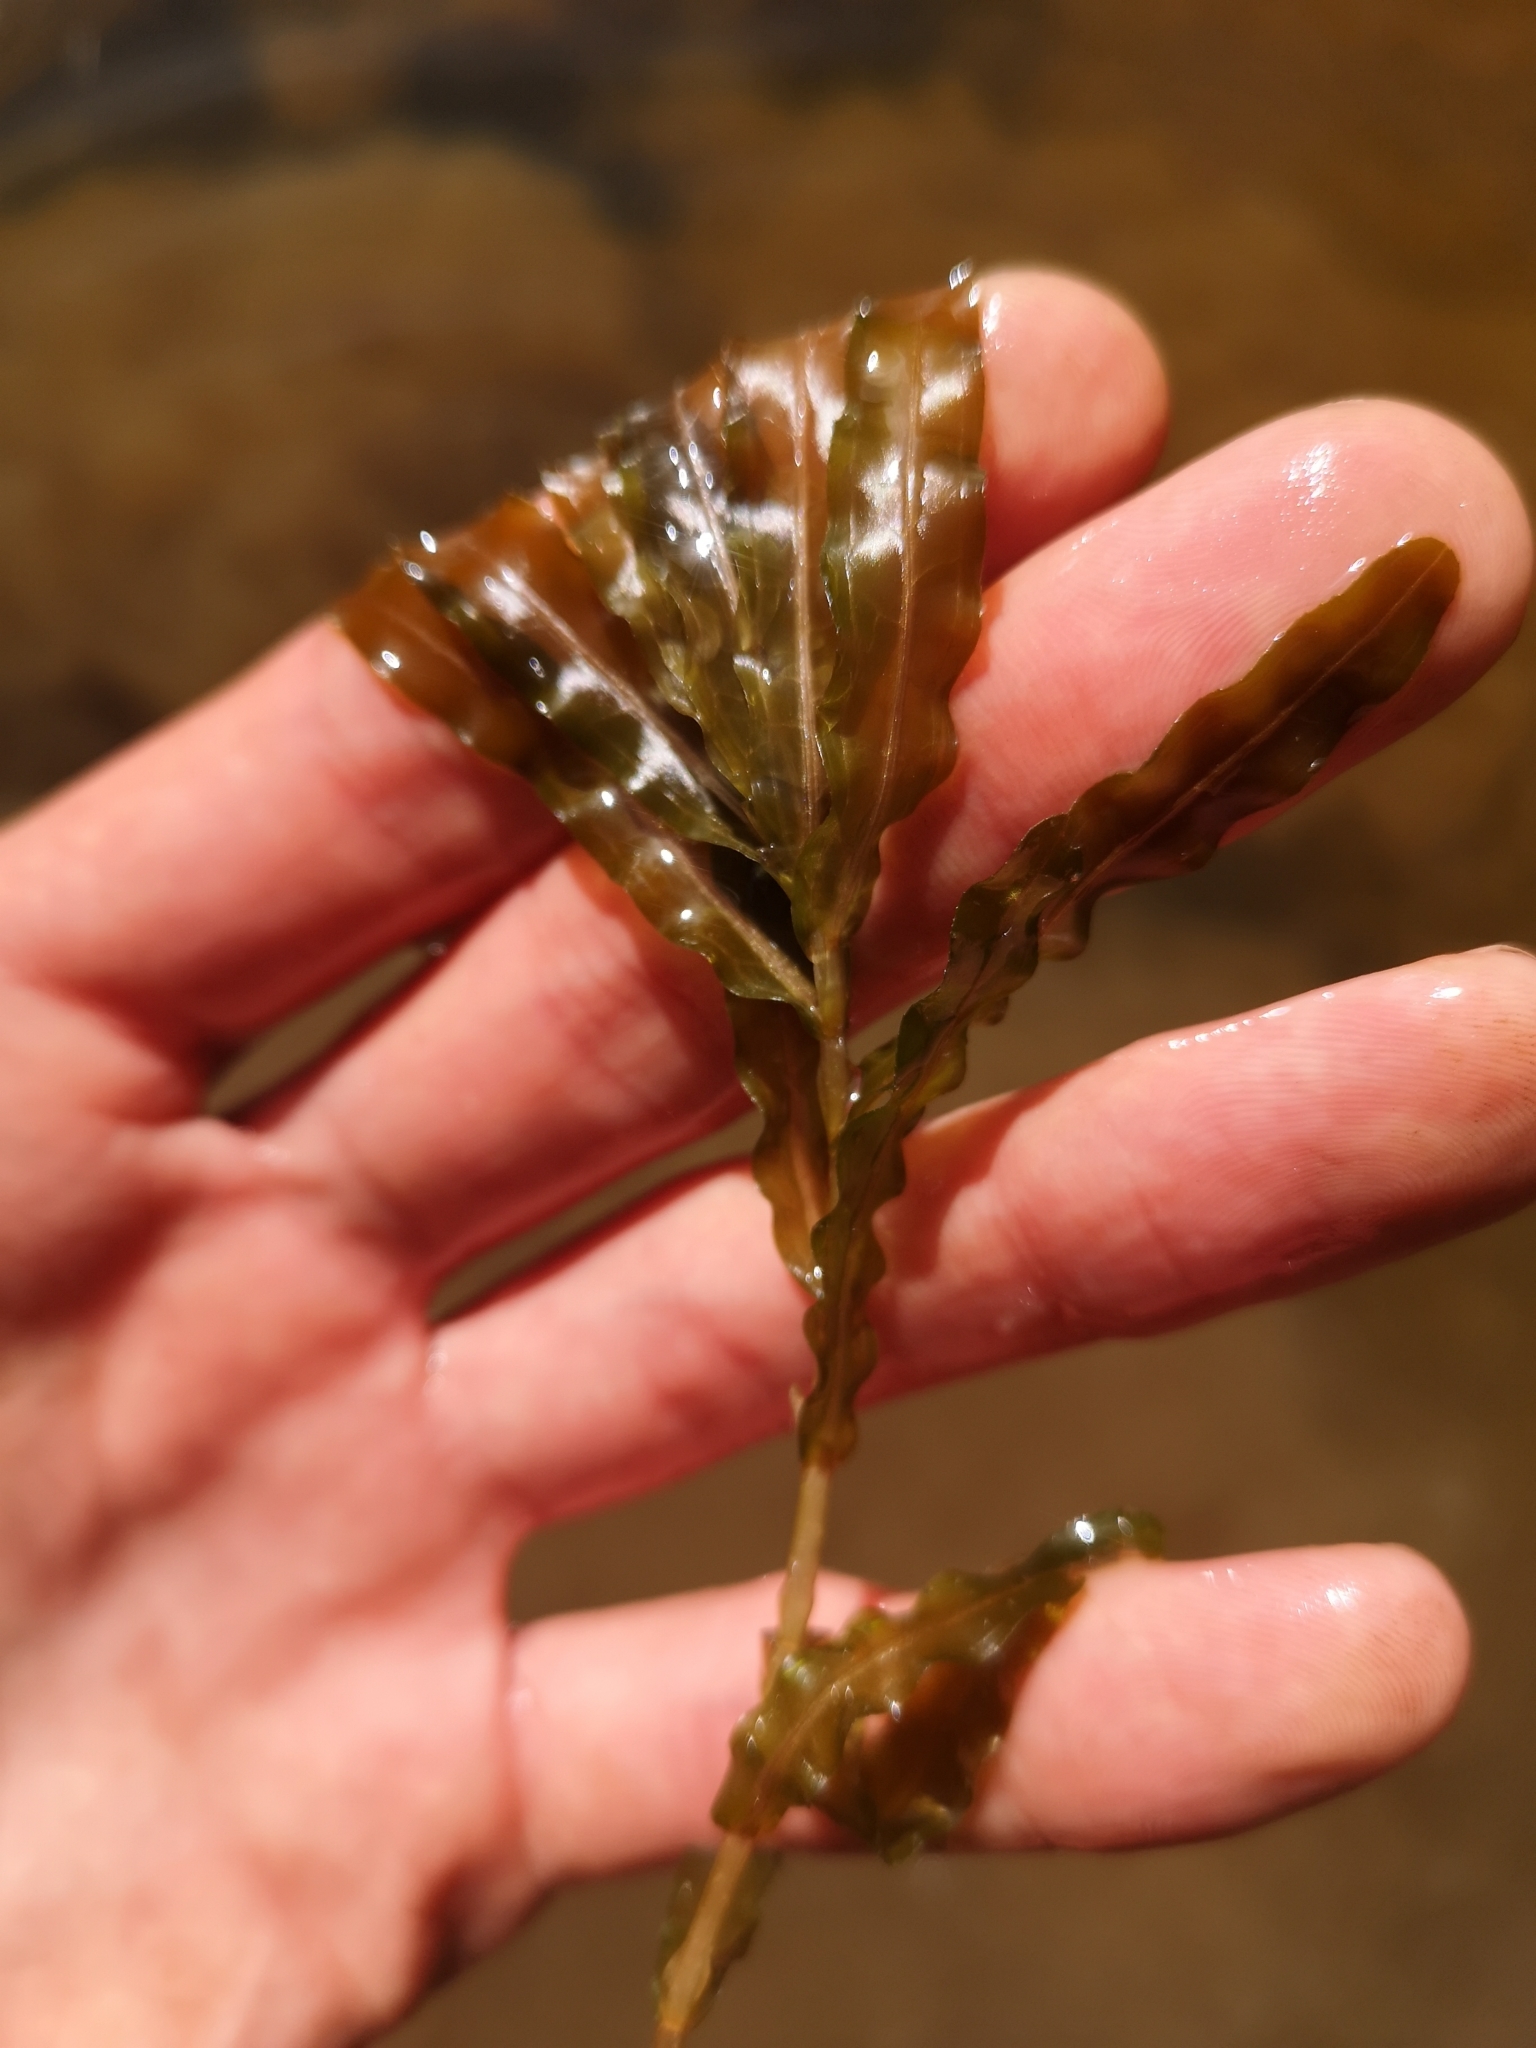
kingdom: Plantae
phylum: Tracheophyta
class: Liliopsida
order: Alismatales
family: Potamogetonaceae
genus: Potamogeton
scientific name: Potamogeton crispus
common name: Curled pondweed
